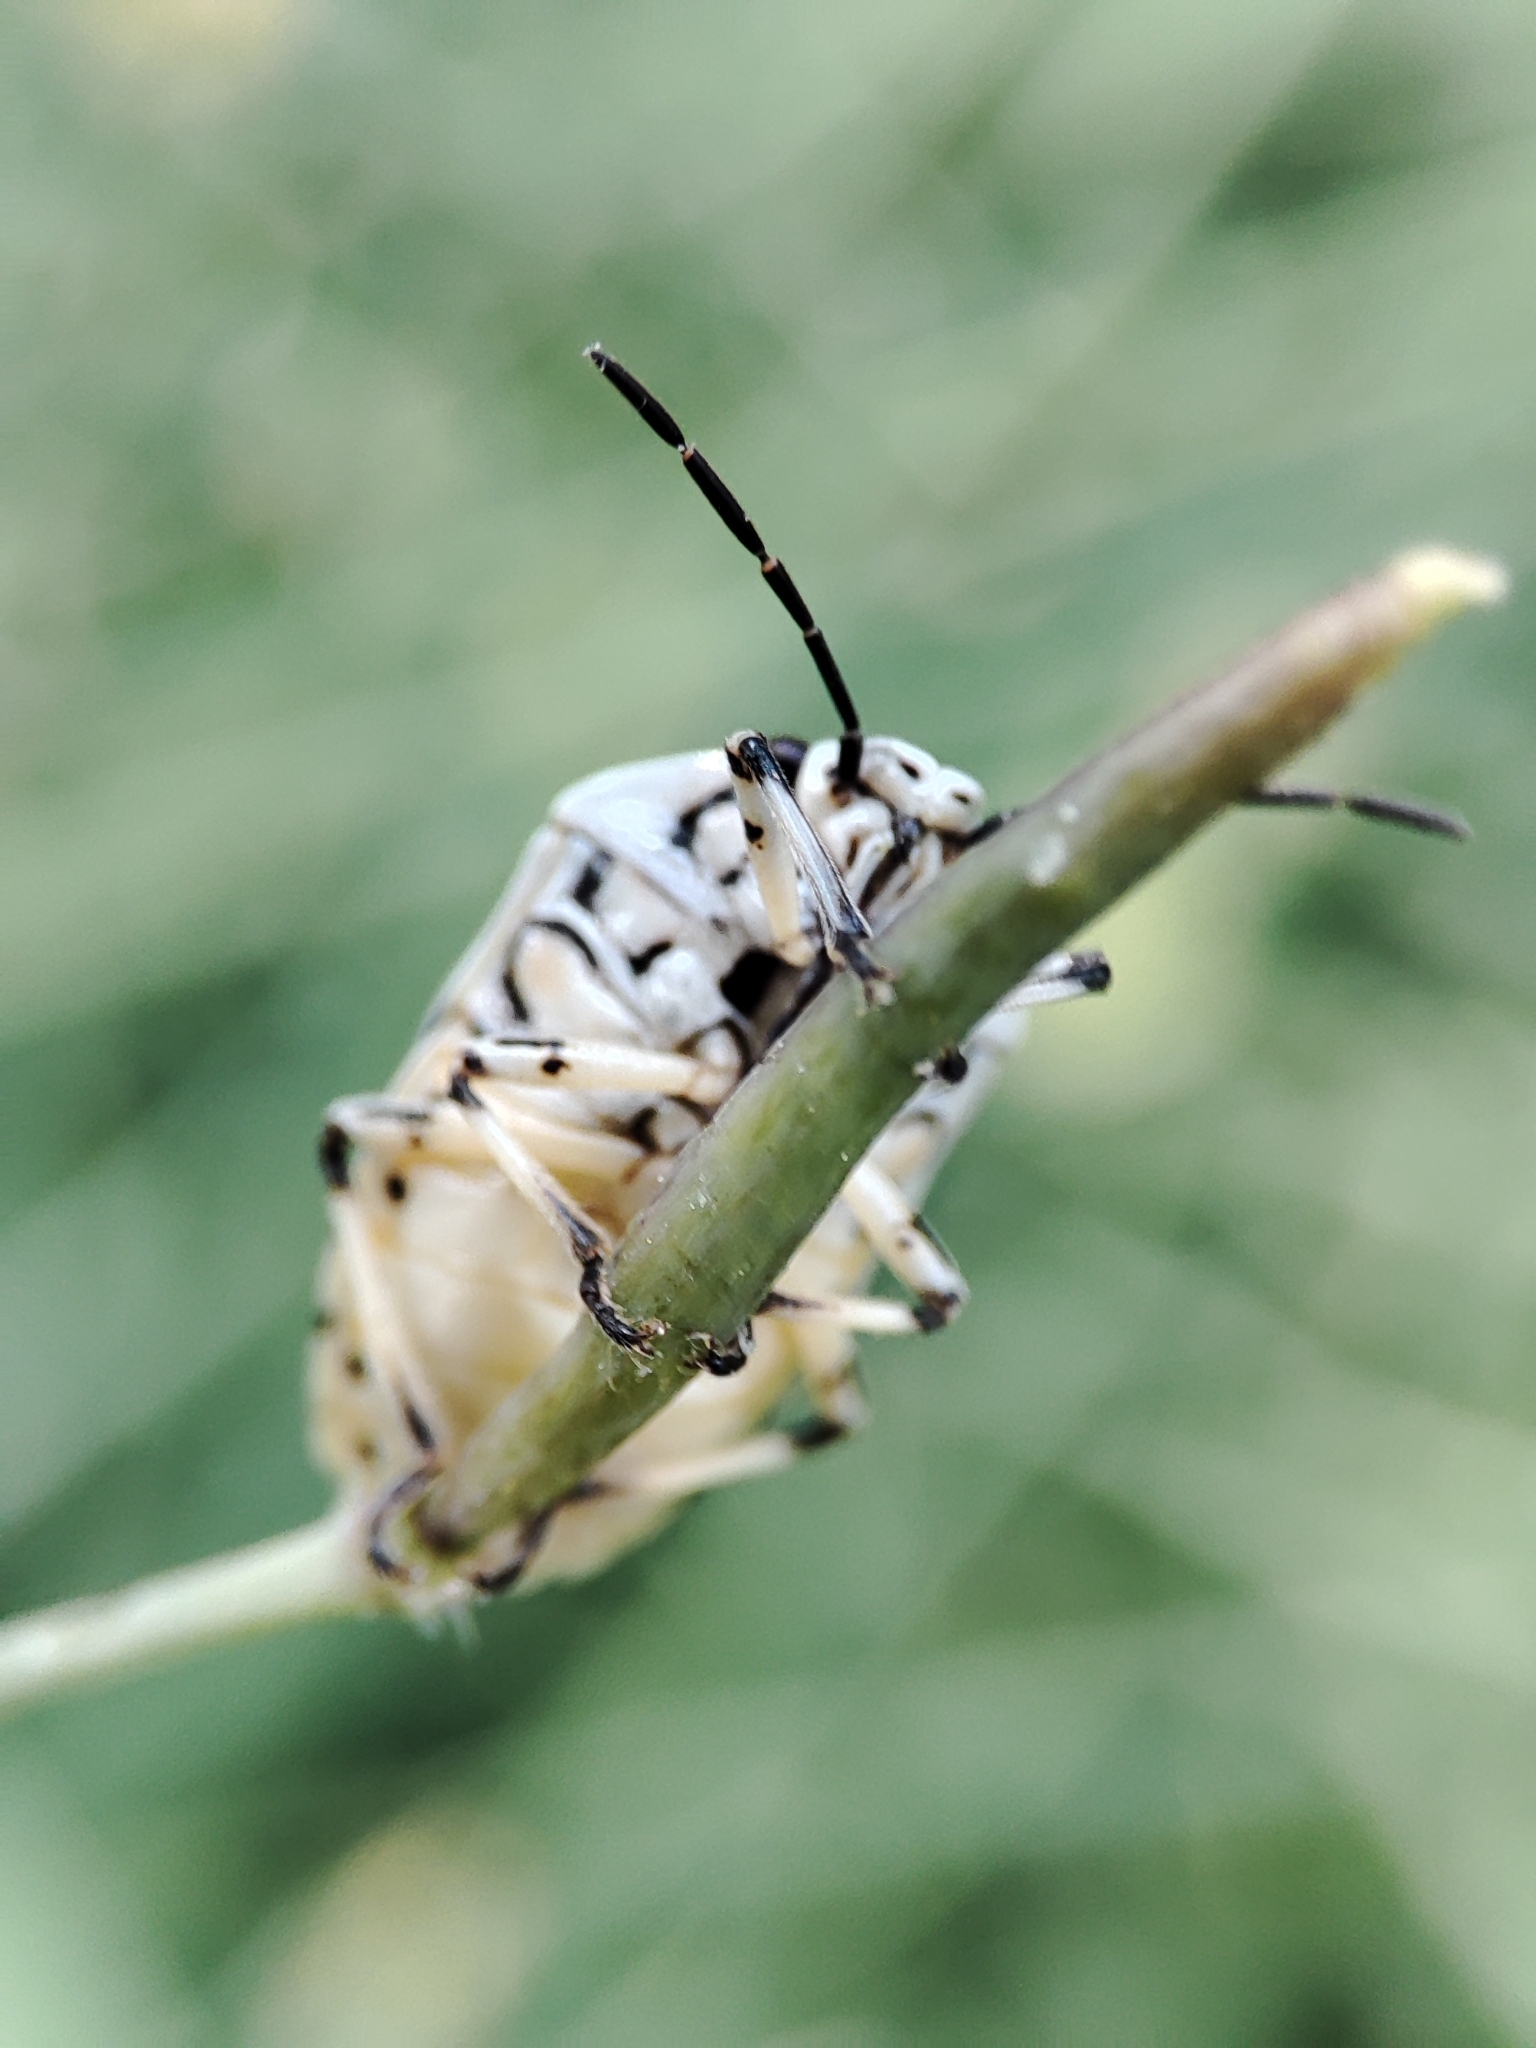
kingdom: Animalia
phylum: Arthropoda
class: Insecta
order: Hemiptera
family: Pentatomidae
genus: Eurydema
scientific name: Eurydema ornata
